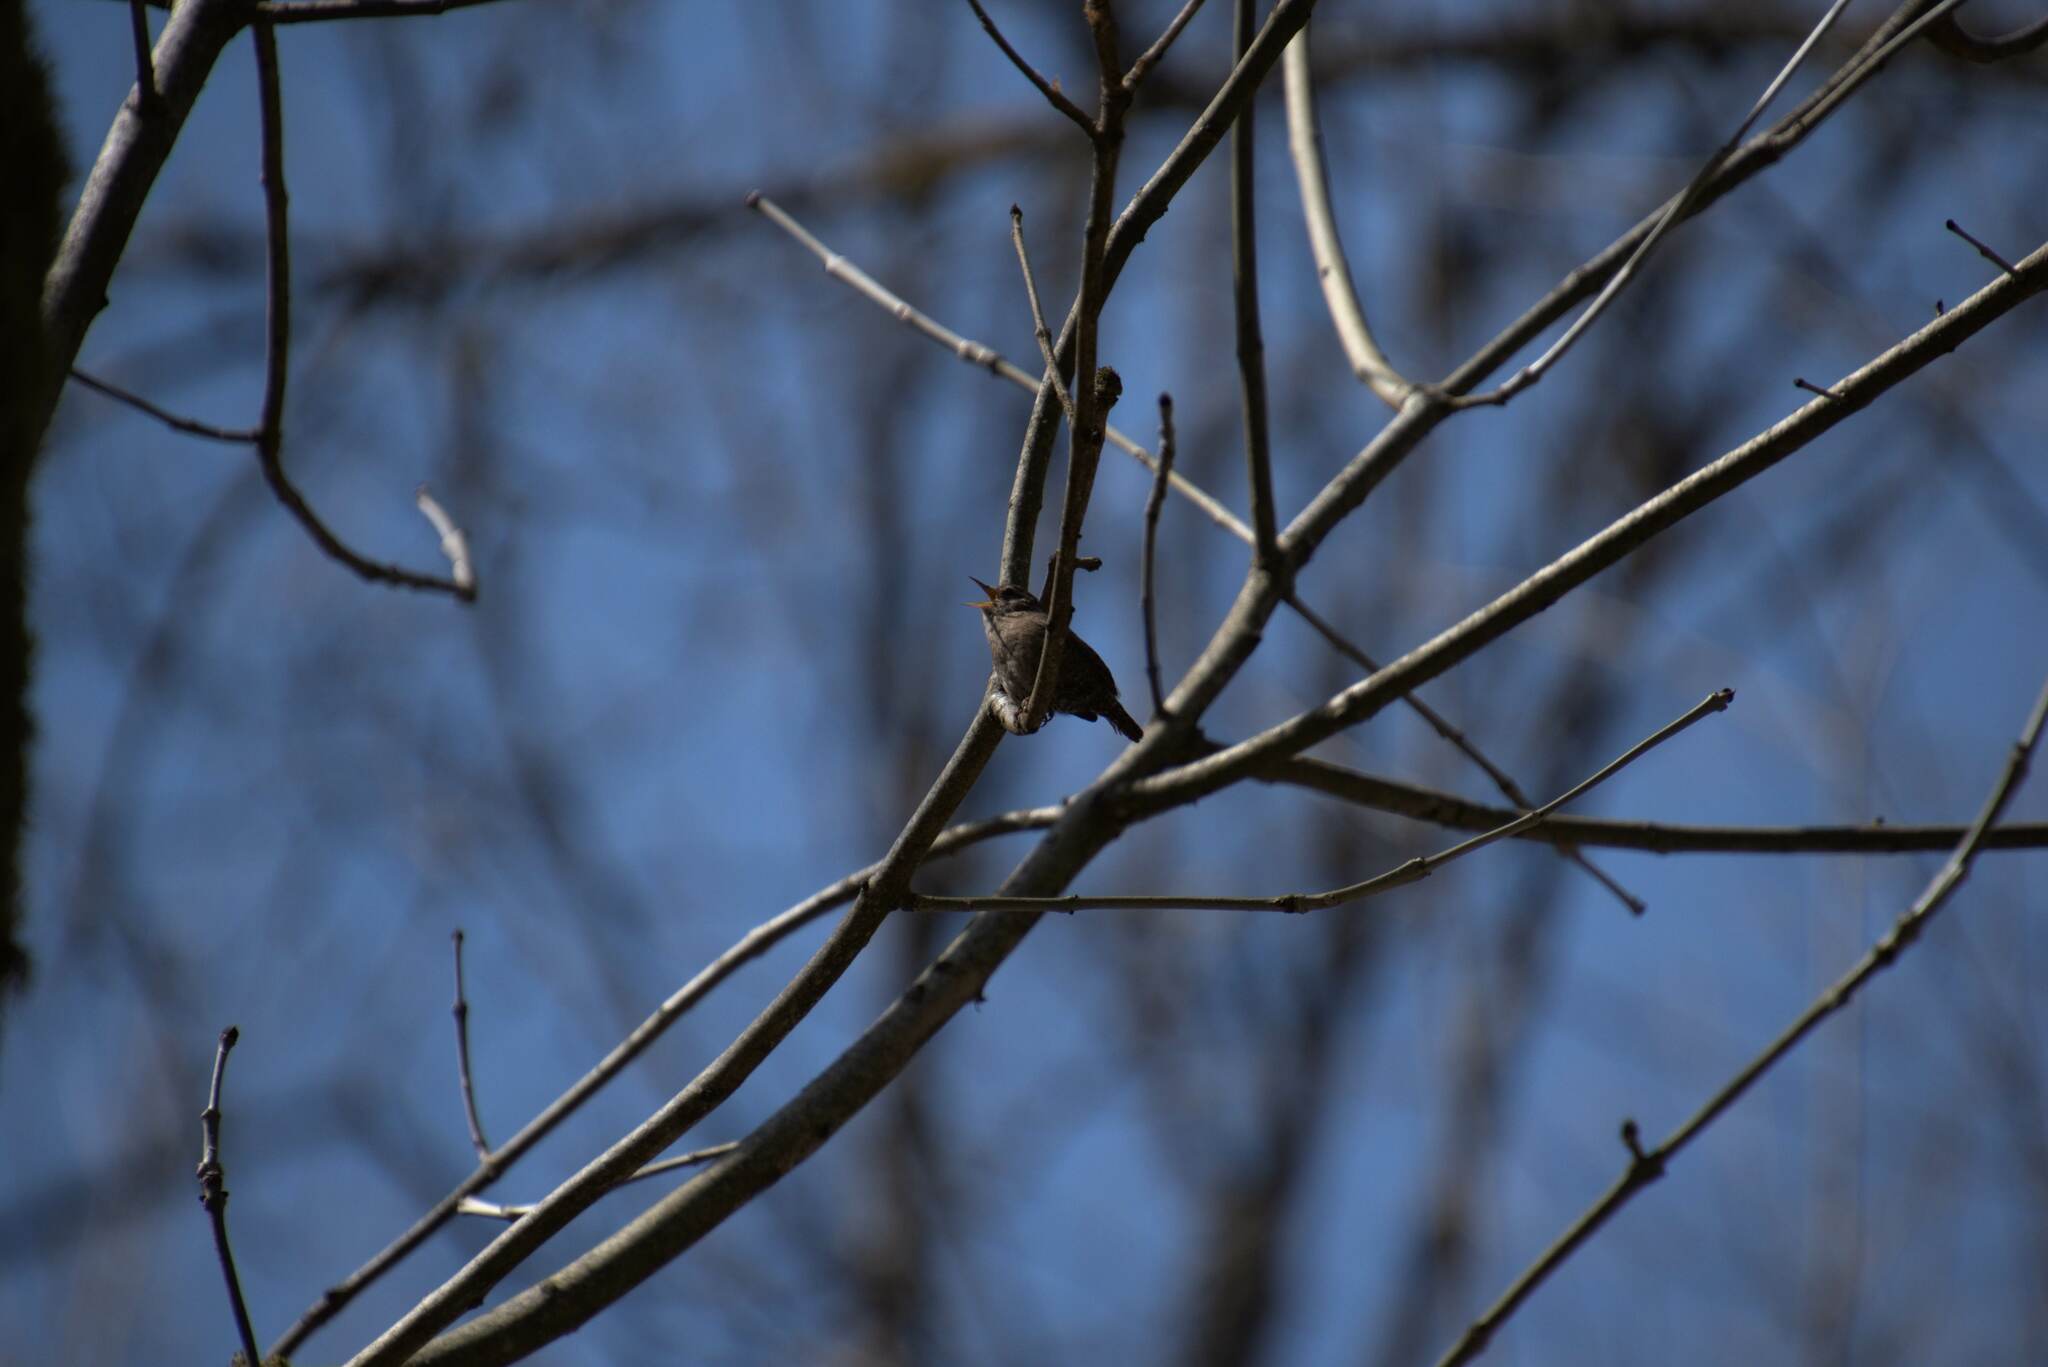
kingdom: Animalia
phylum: Chordata
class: Aves
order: Passeriformes
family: Troglodytidae
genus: Troglodytes
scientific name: Troglodytes troglodytes
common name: Eurasian wren
